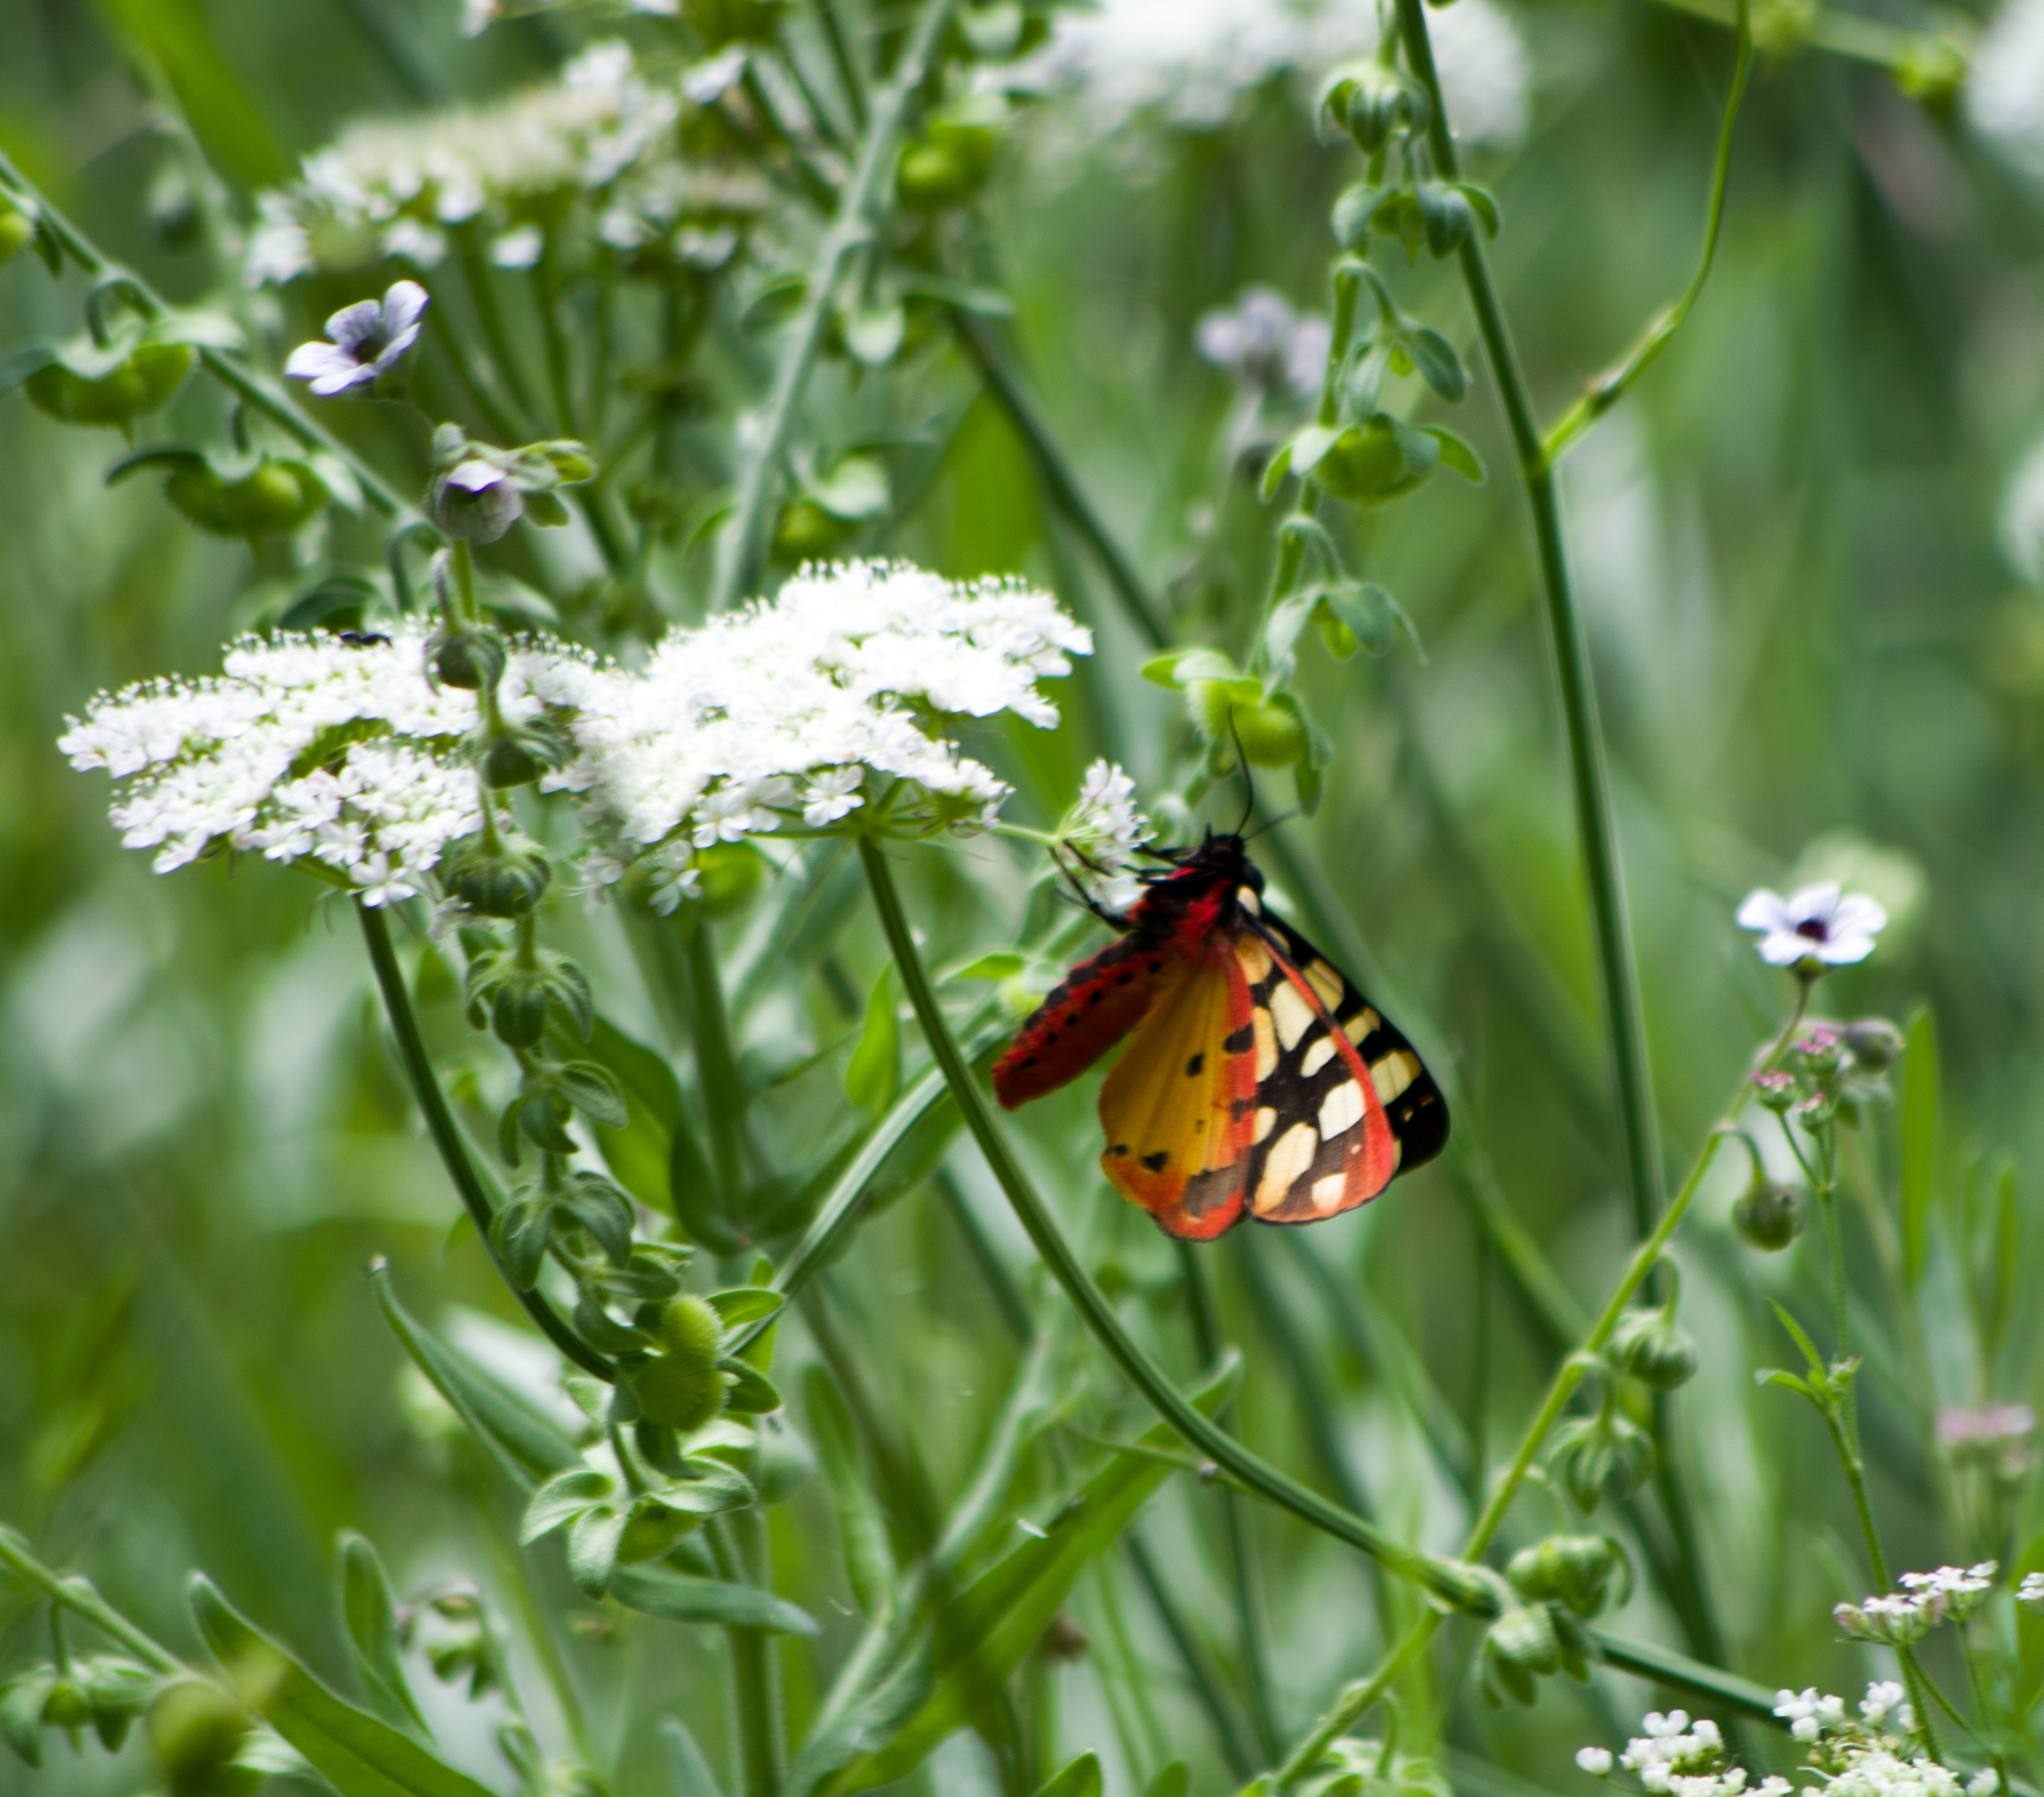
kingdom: Animalia
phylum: Arthropoda
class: Insecta
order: Lepidoptera
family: Erebidae
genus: Epicallia
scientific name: Epicallia villica
